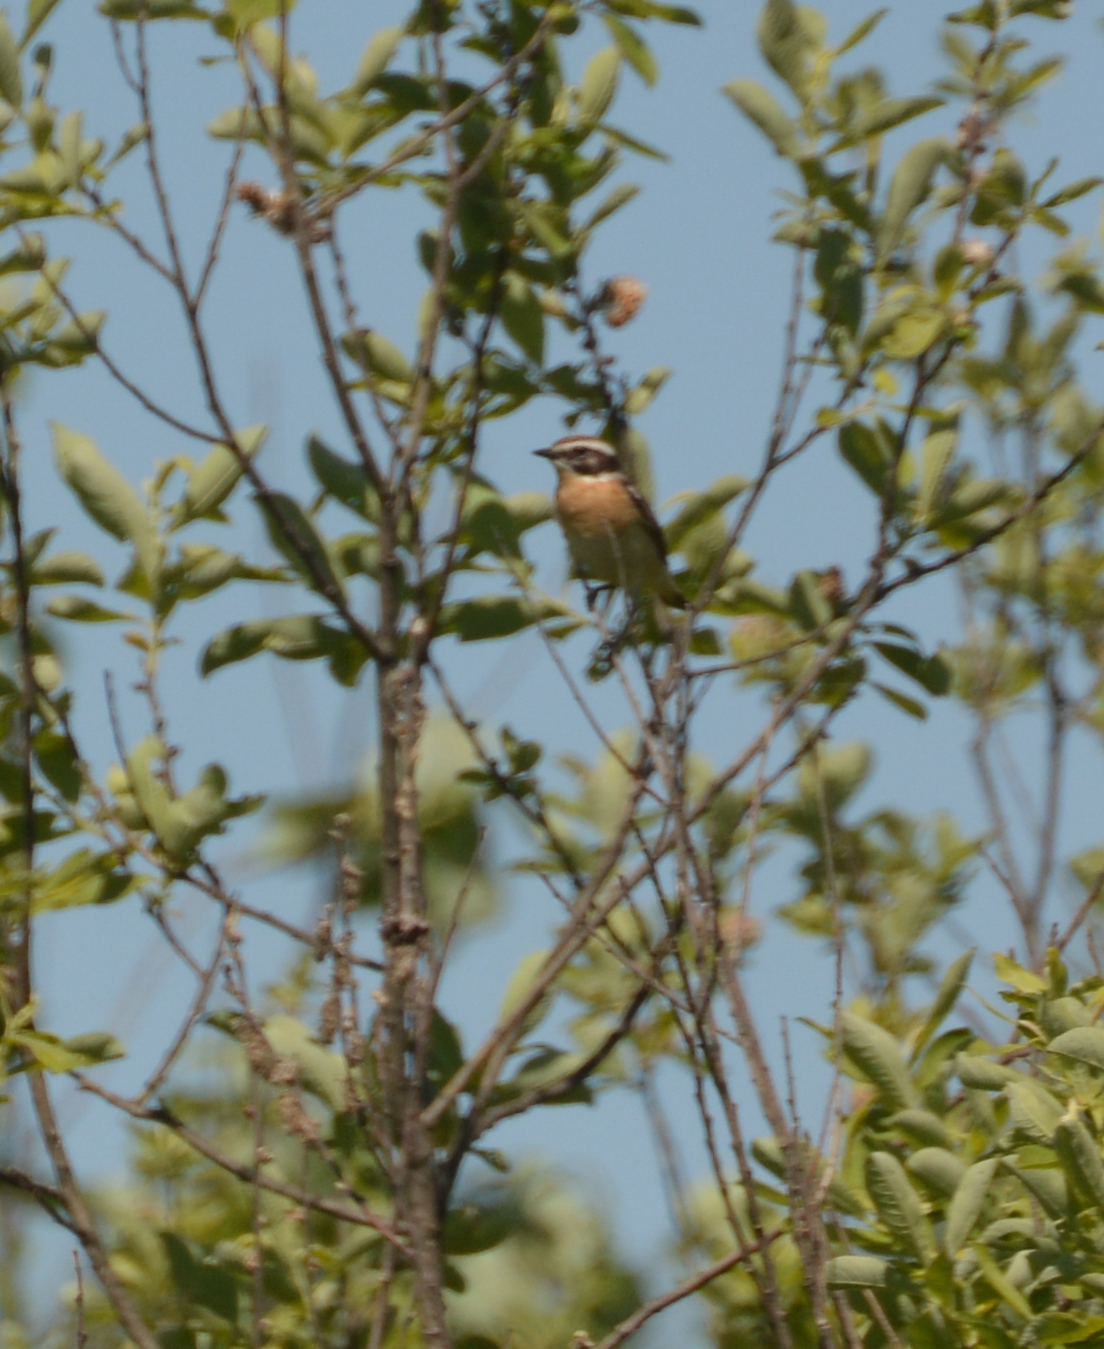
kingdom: Animalia
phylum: Chordata
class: Aves
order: Passeriformes
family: Muscicapidae
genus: Saxicola
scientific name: Saxicola rubetra
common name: Whinchat
